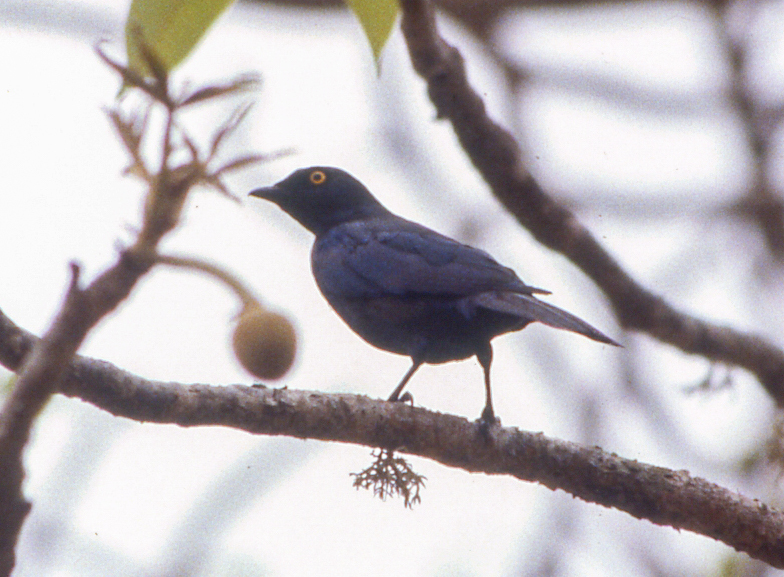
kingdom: Animalia
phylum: Chordata
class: Aves
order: Passeriformes
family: Sturnidae
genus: Notopholia
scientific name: Notopholia corrusca
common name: Black-bellied starling
